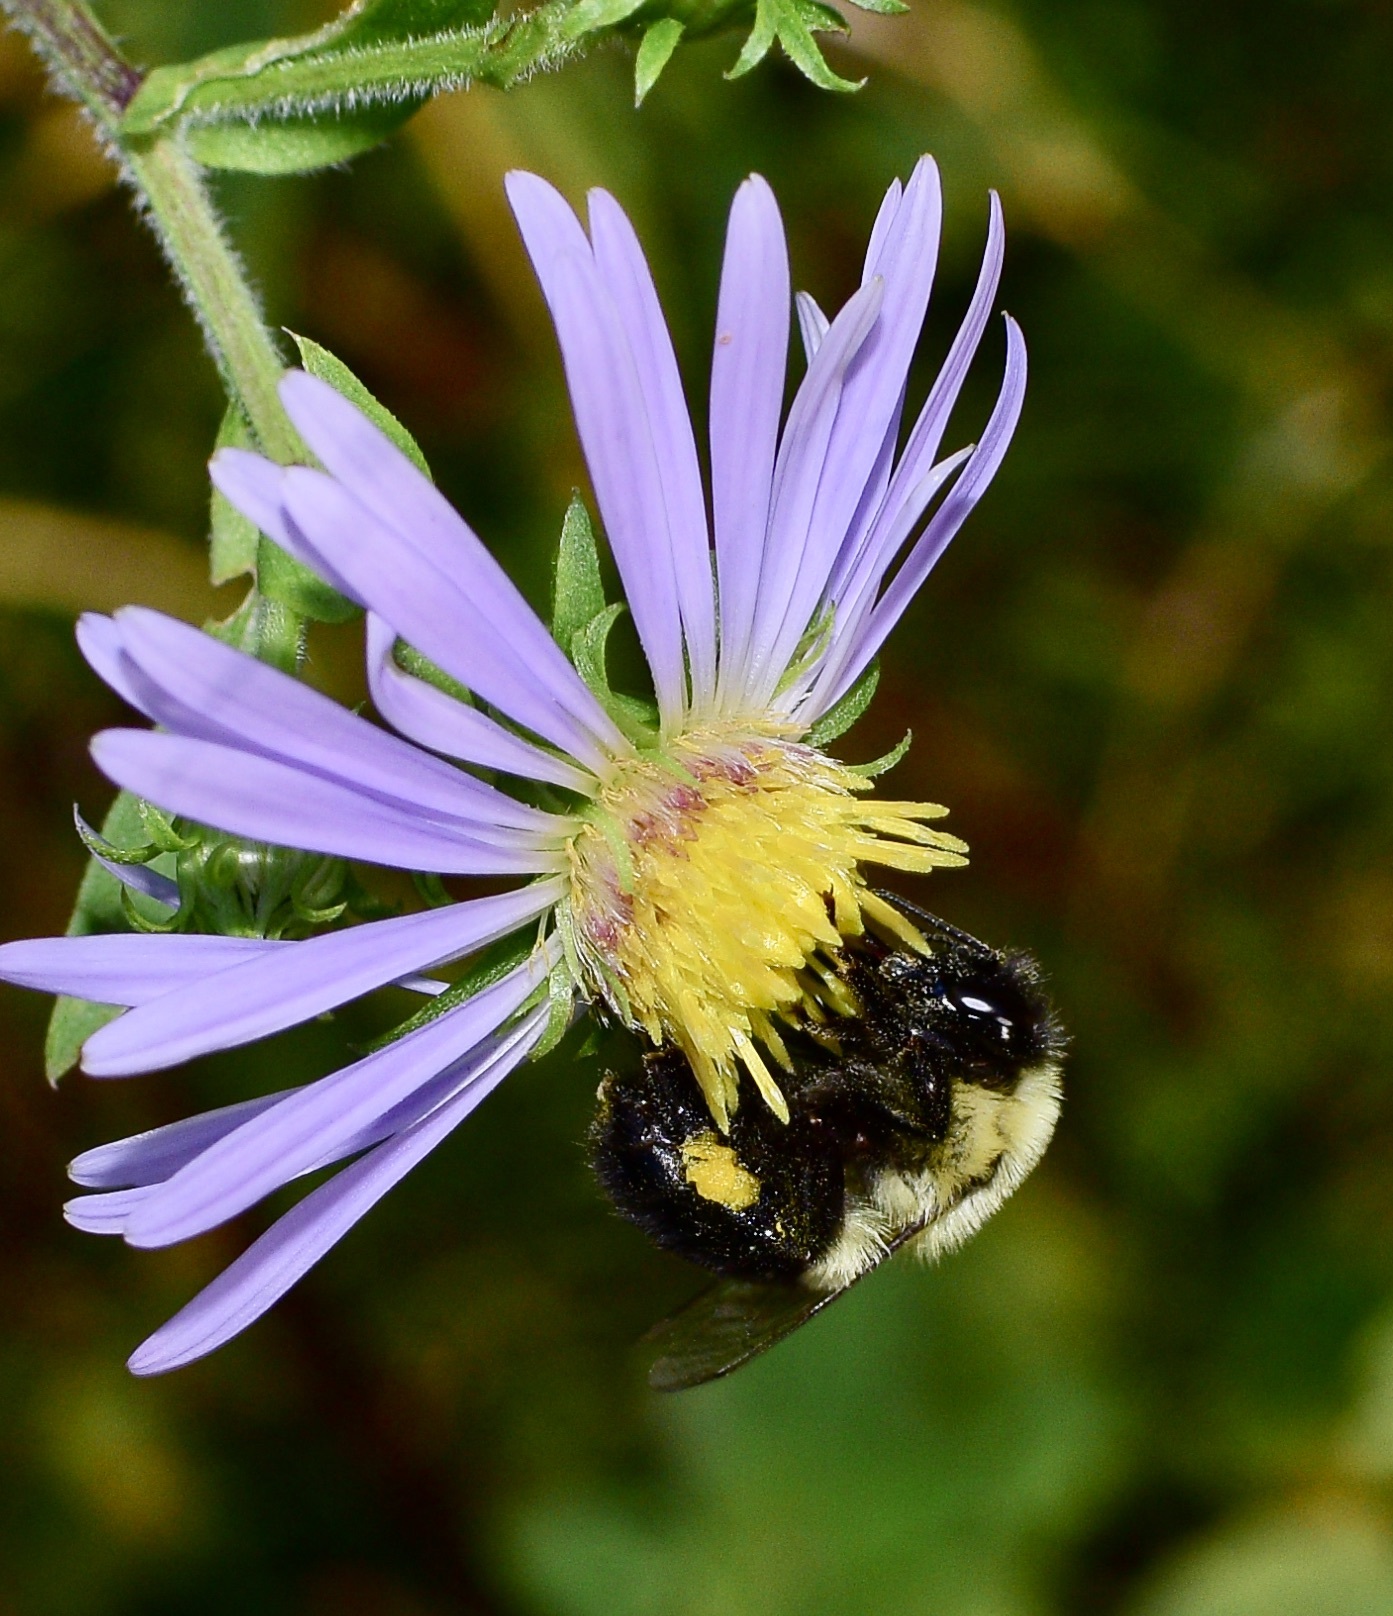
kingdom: Animalia
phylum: Arthropoda
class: Insecta
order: Hymenoptera
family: Apidae
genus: Bombus
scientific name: Bombus impatiens
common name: Common eastern bumble bee
